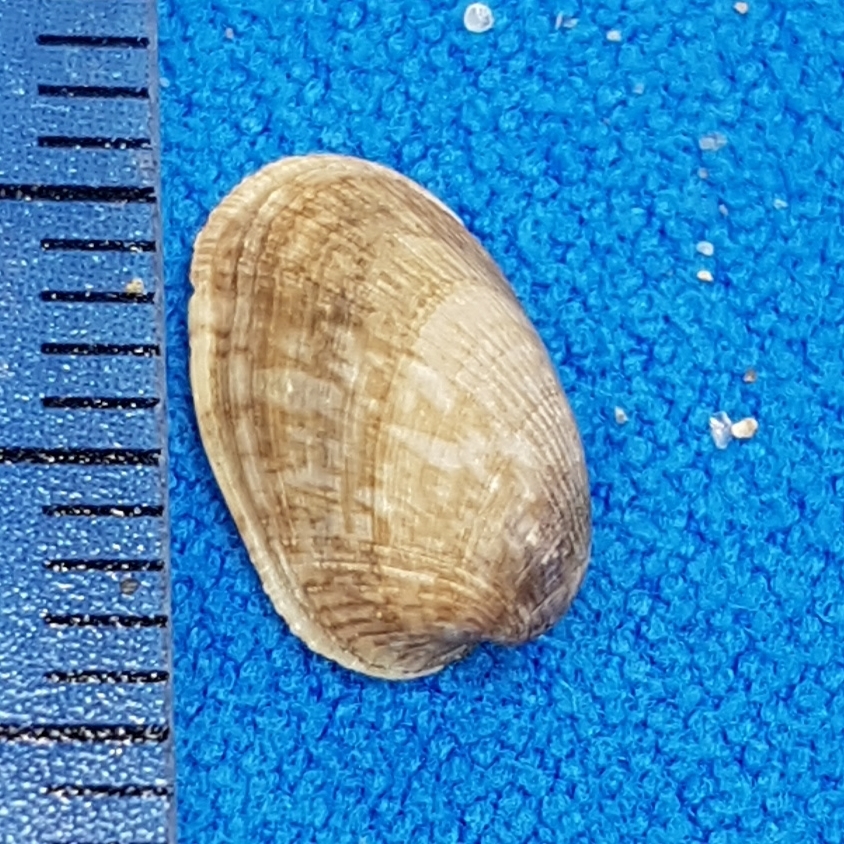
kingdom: Animalia
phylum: Mollusca
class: Bivalvia
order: Mytilida
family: Mytilidae
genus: Musculus
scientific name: Musculus subpictus
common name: Marbled crenella
